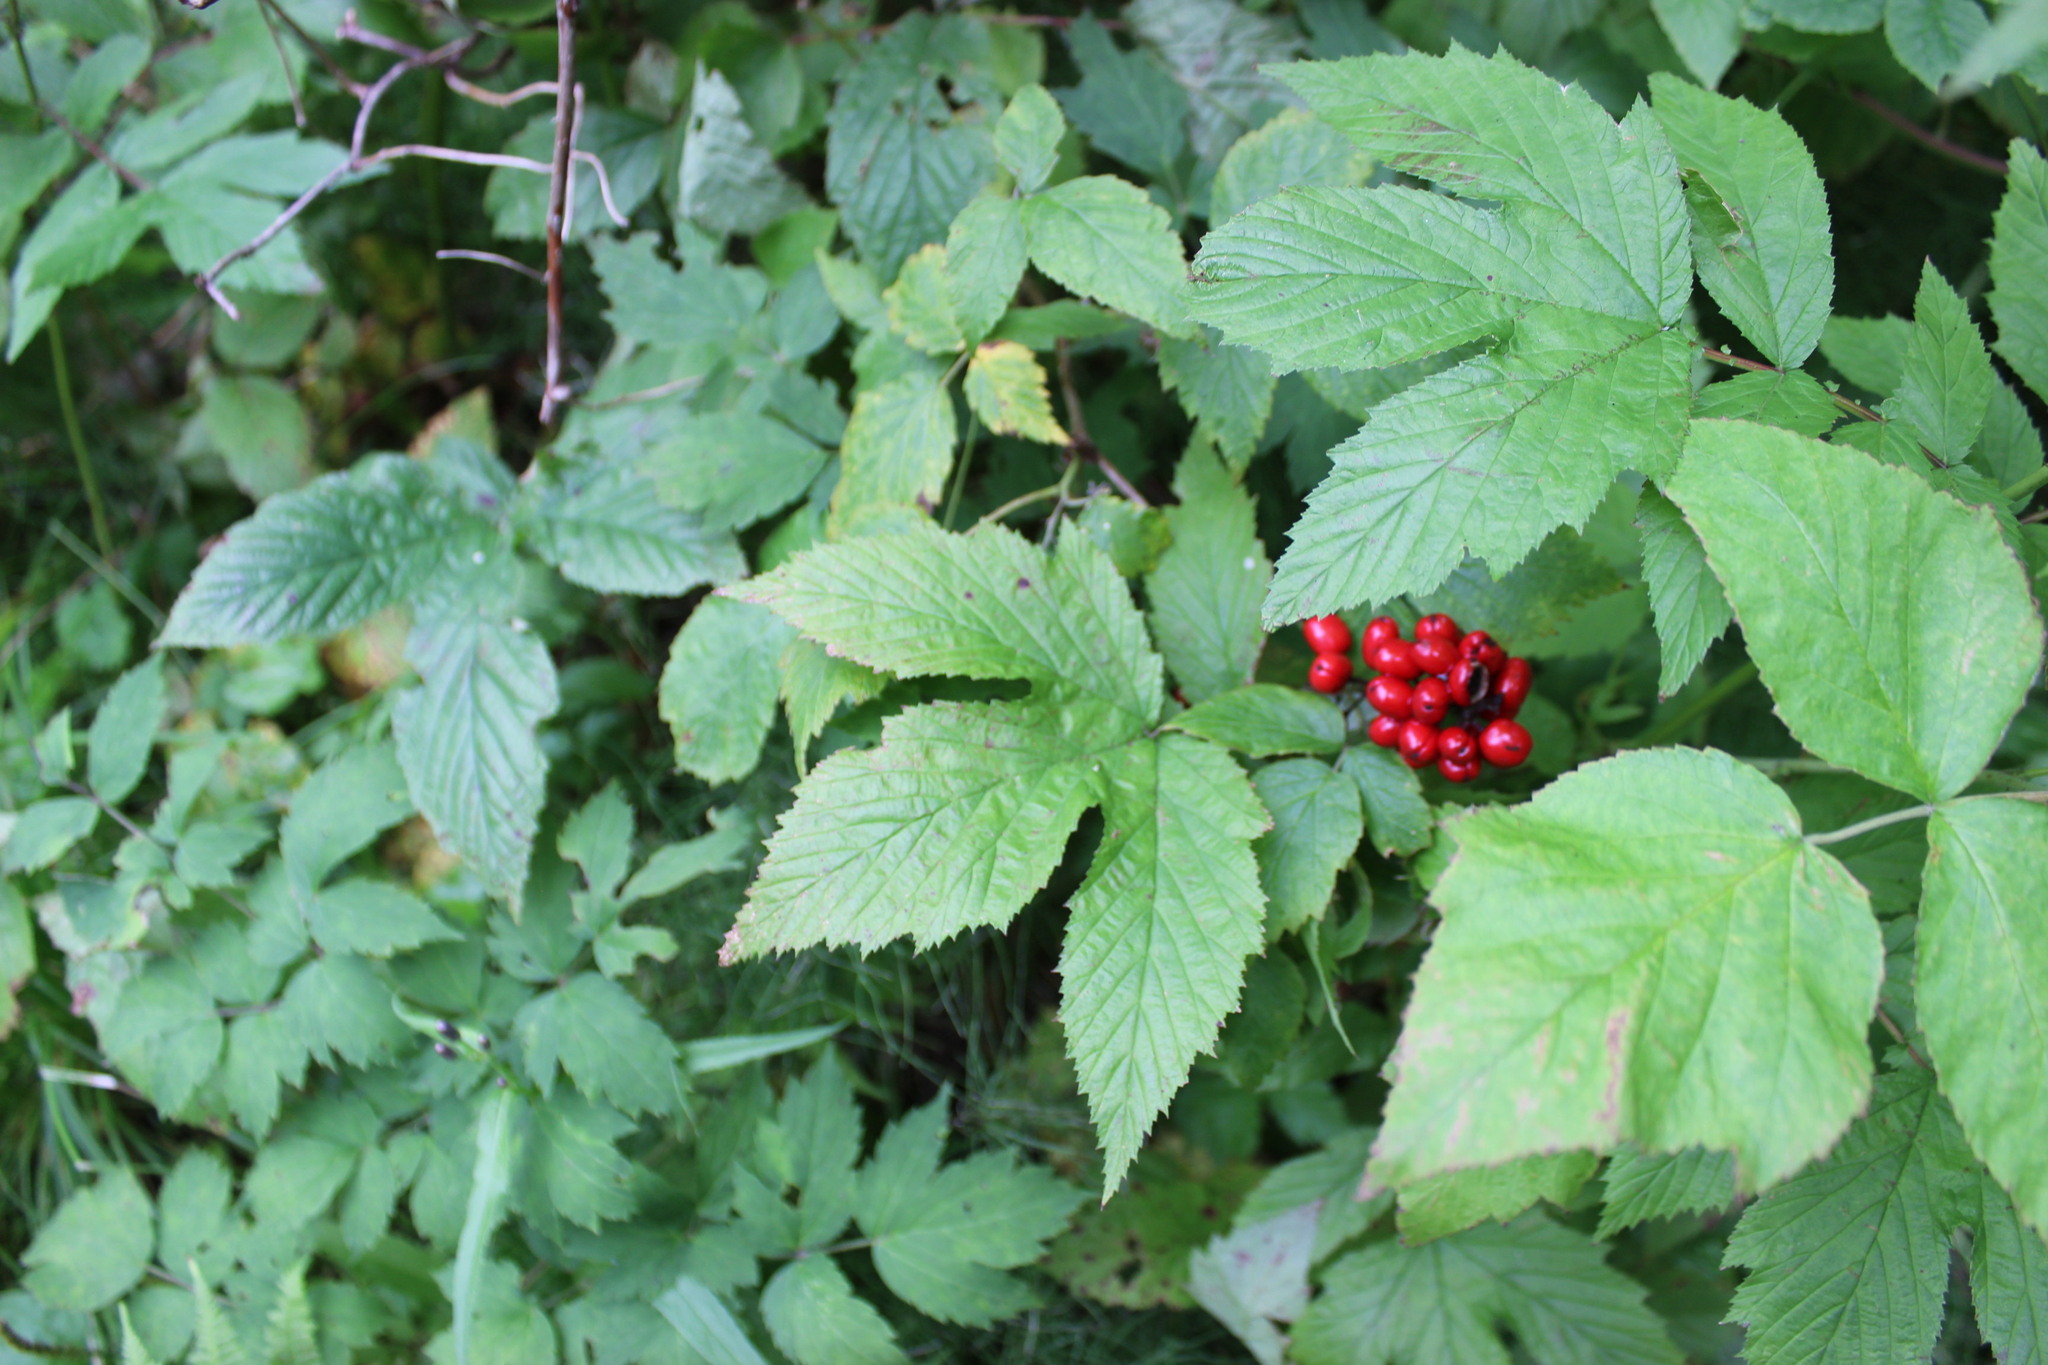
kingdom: Plantae
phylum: Tracheophyta
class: Magnoliopsida
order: Ranunculales
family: Ranunculaceae
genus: Actaea
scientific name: Actaea erythrocarpa
